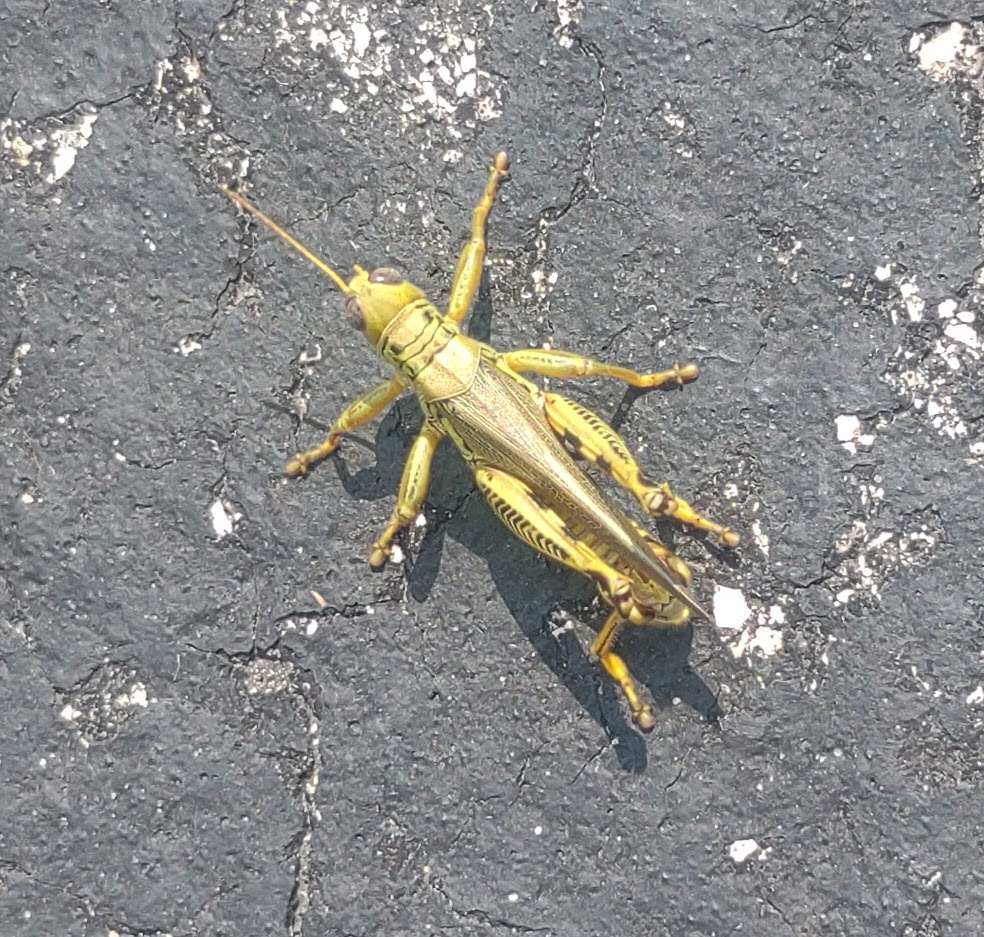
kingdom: Animalia
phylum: Arthropoda
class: Insecta
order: Orthoptera
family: Acrididae
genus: Melanoplus
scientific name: Melanoplus differentialis
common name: Differential grasshopper
